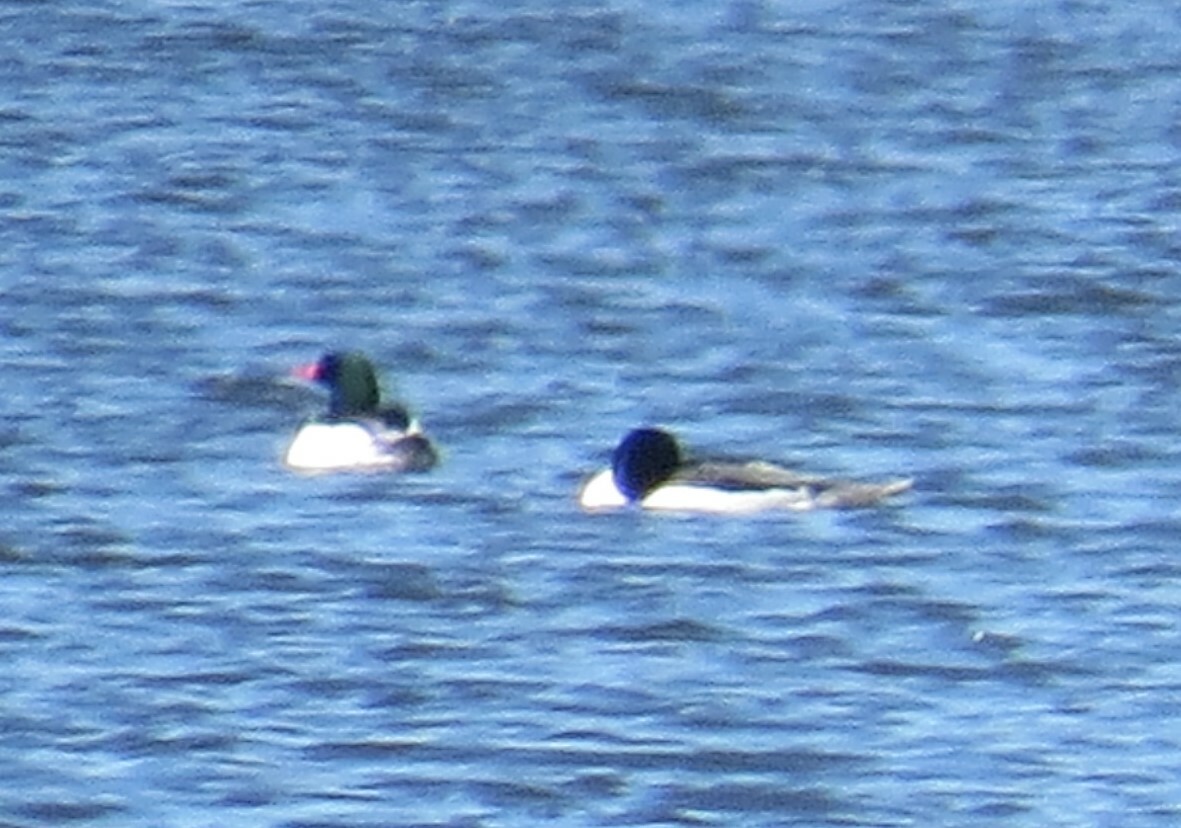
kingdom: Animalia
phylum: Chordata
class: Aves
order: Anseriformes
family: Anatidae
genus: Mergus
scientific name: Mergus merganser
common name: Common merganser
